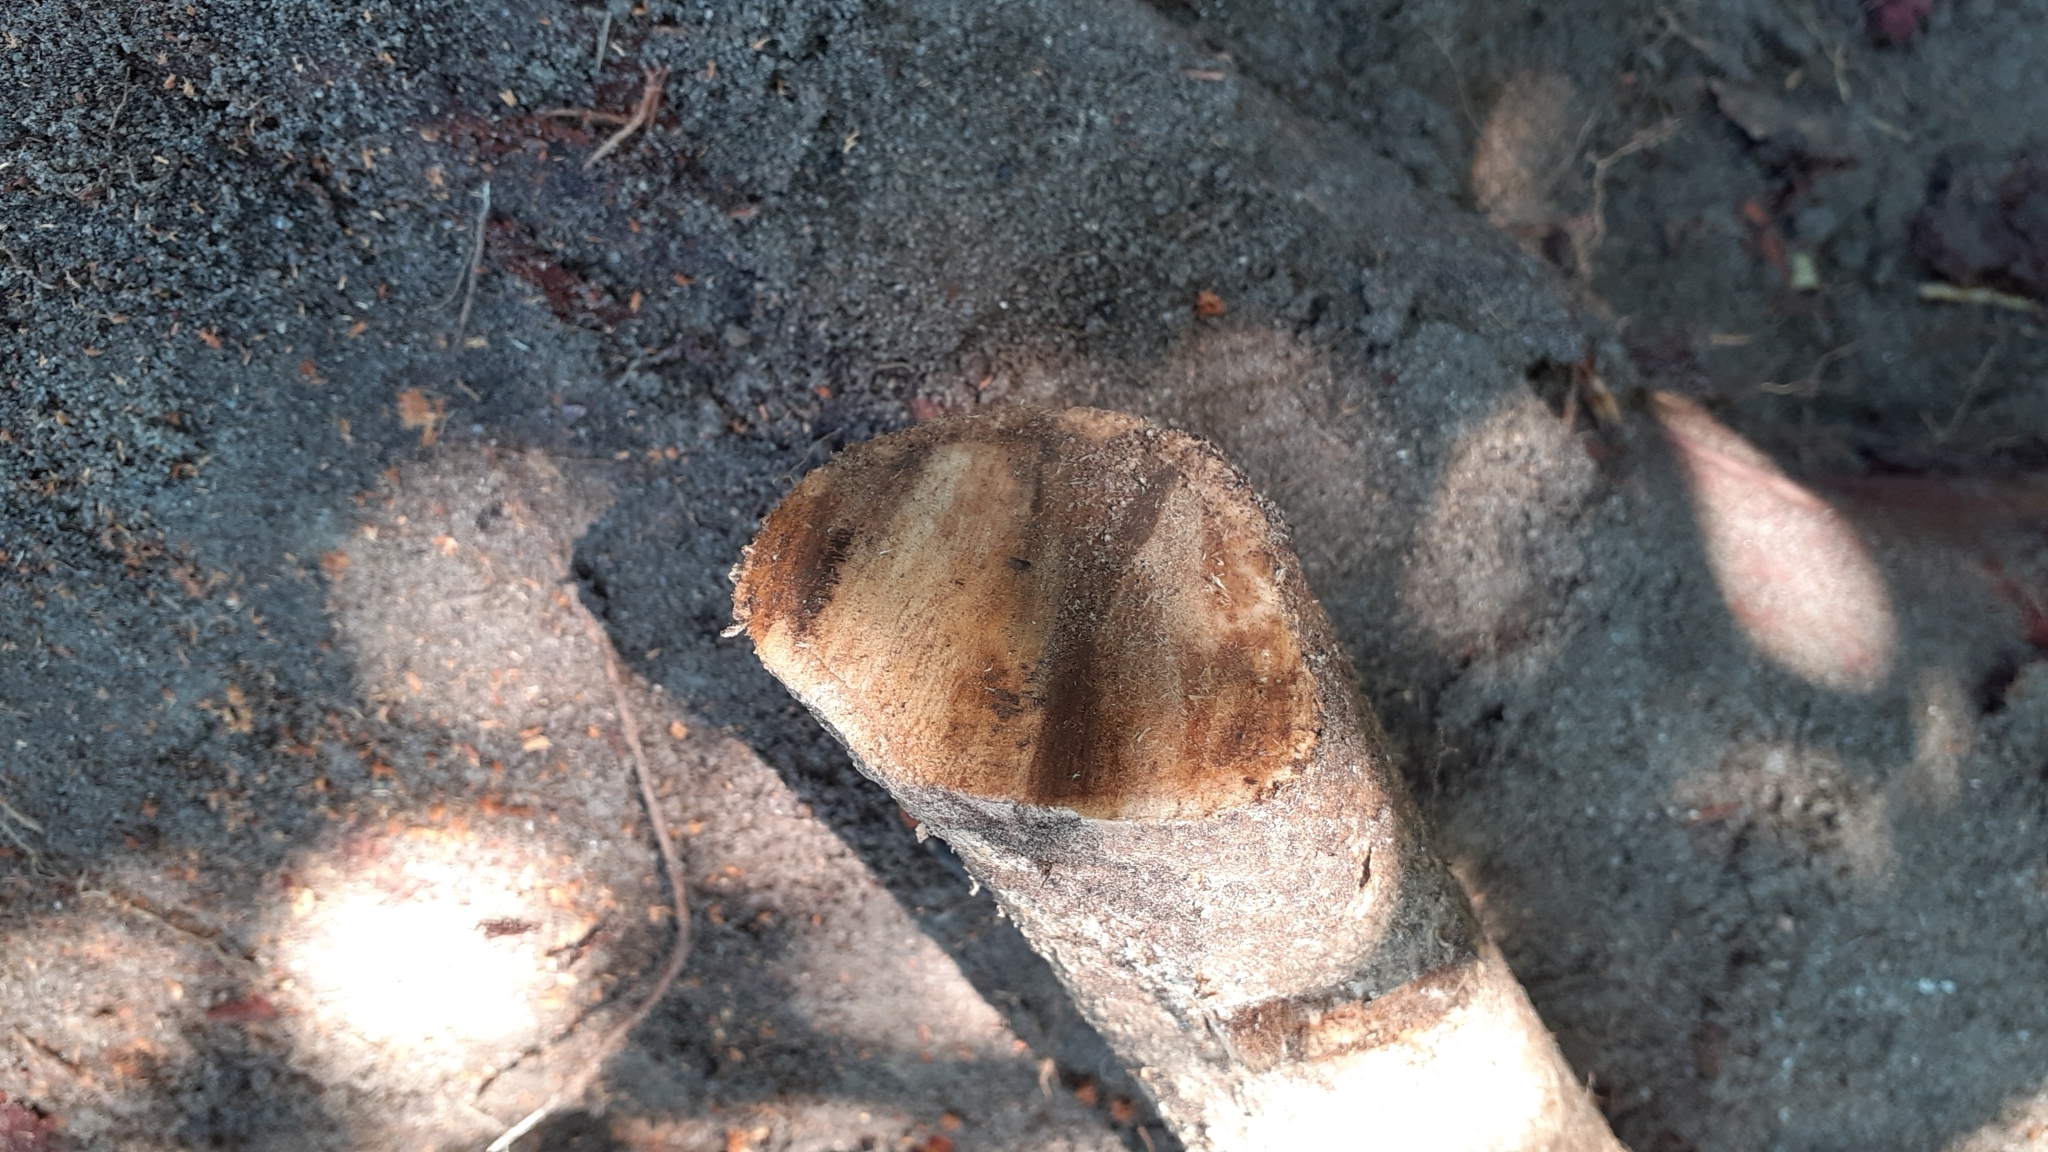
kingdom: Plantae
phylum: Tracheophyta
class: Magnoliopsida
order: Malpighiales
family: Achariaceae
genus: Kiggelaria
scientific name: Kiggelaria africana
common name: Wild peach
